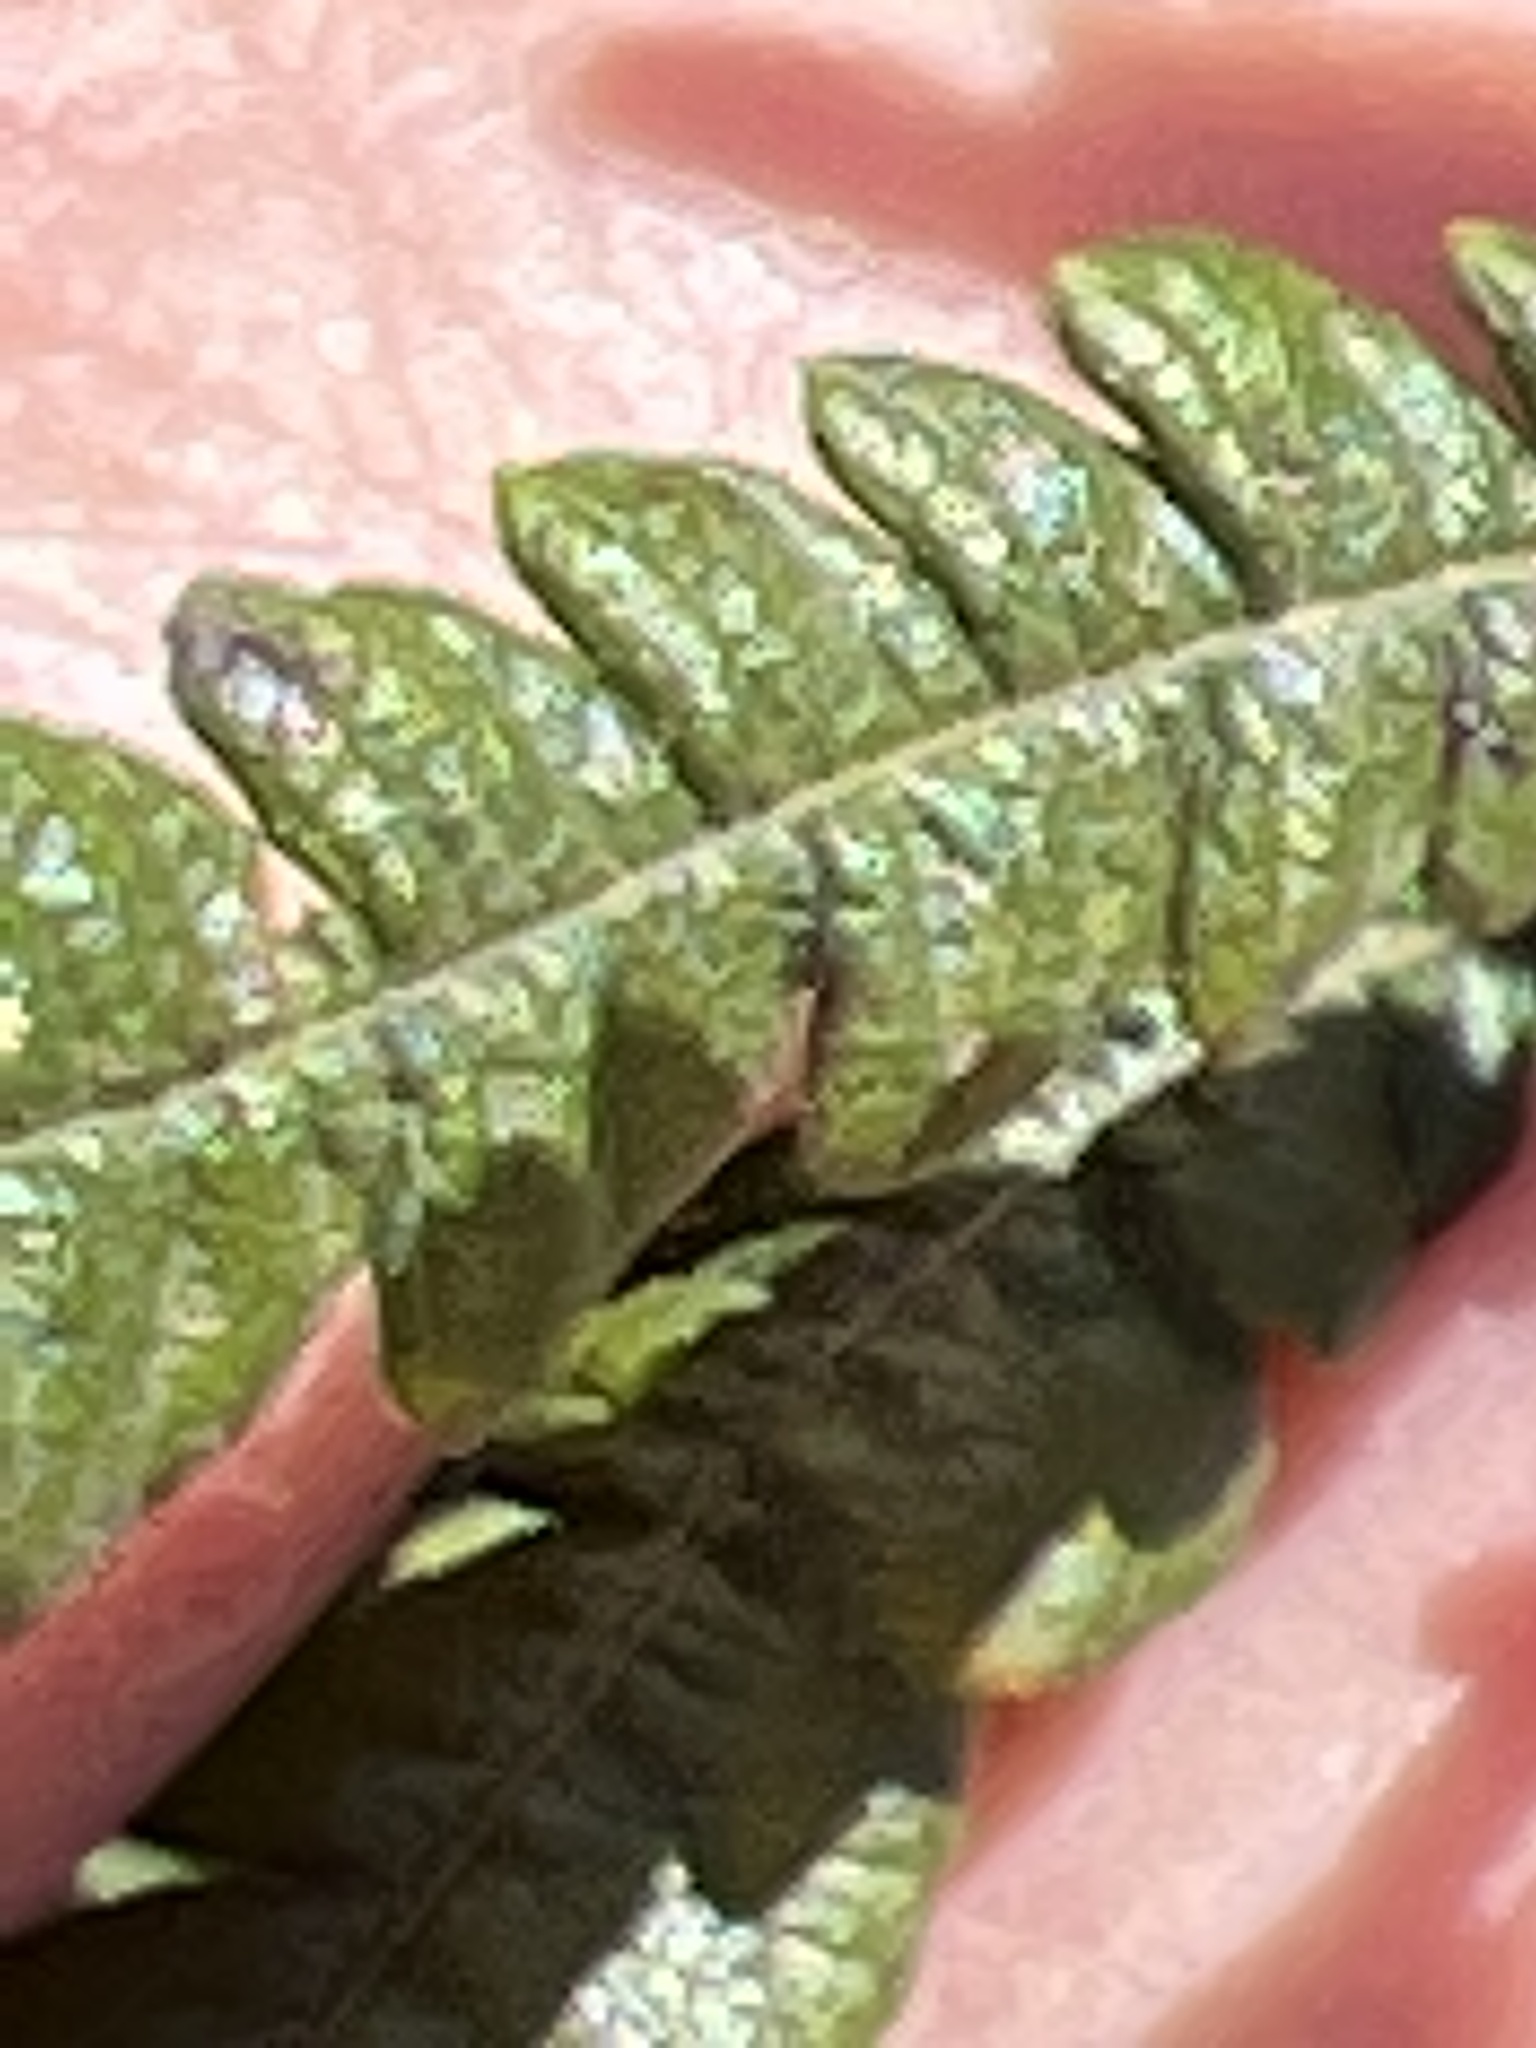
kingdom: Plantae
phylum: Tracheophyta
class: Magnoliopsida
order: Fagales
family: Myricaceae
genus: Comptonia
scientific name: Comptonia peregrina
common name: Sweet-fern
